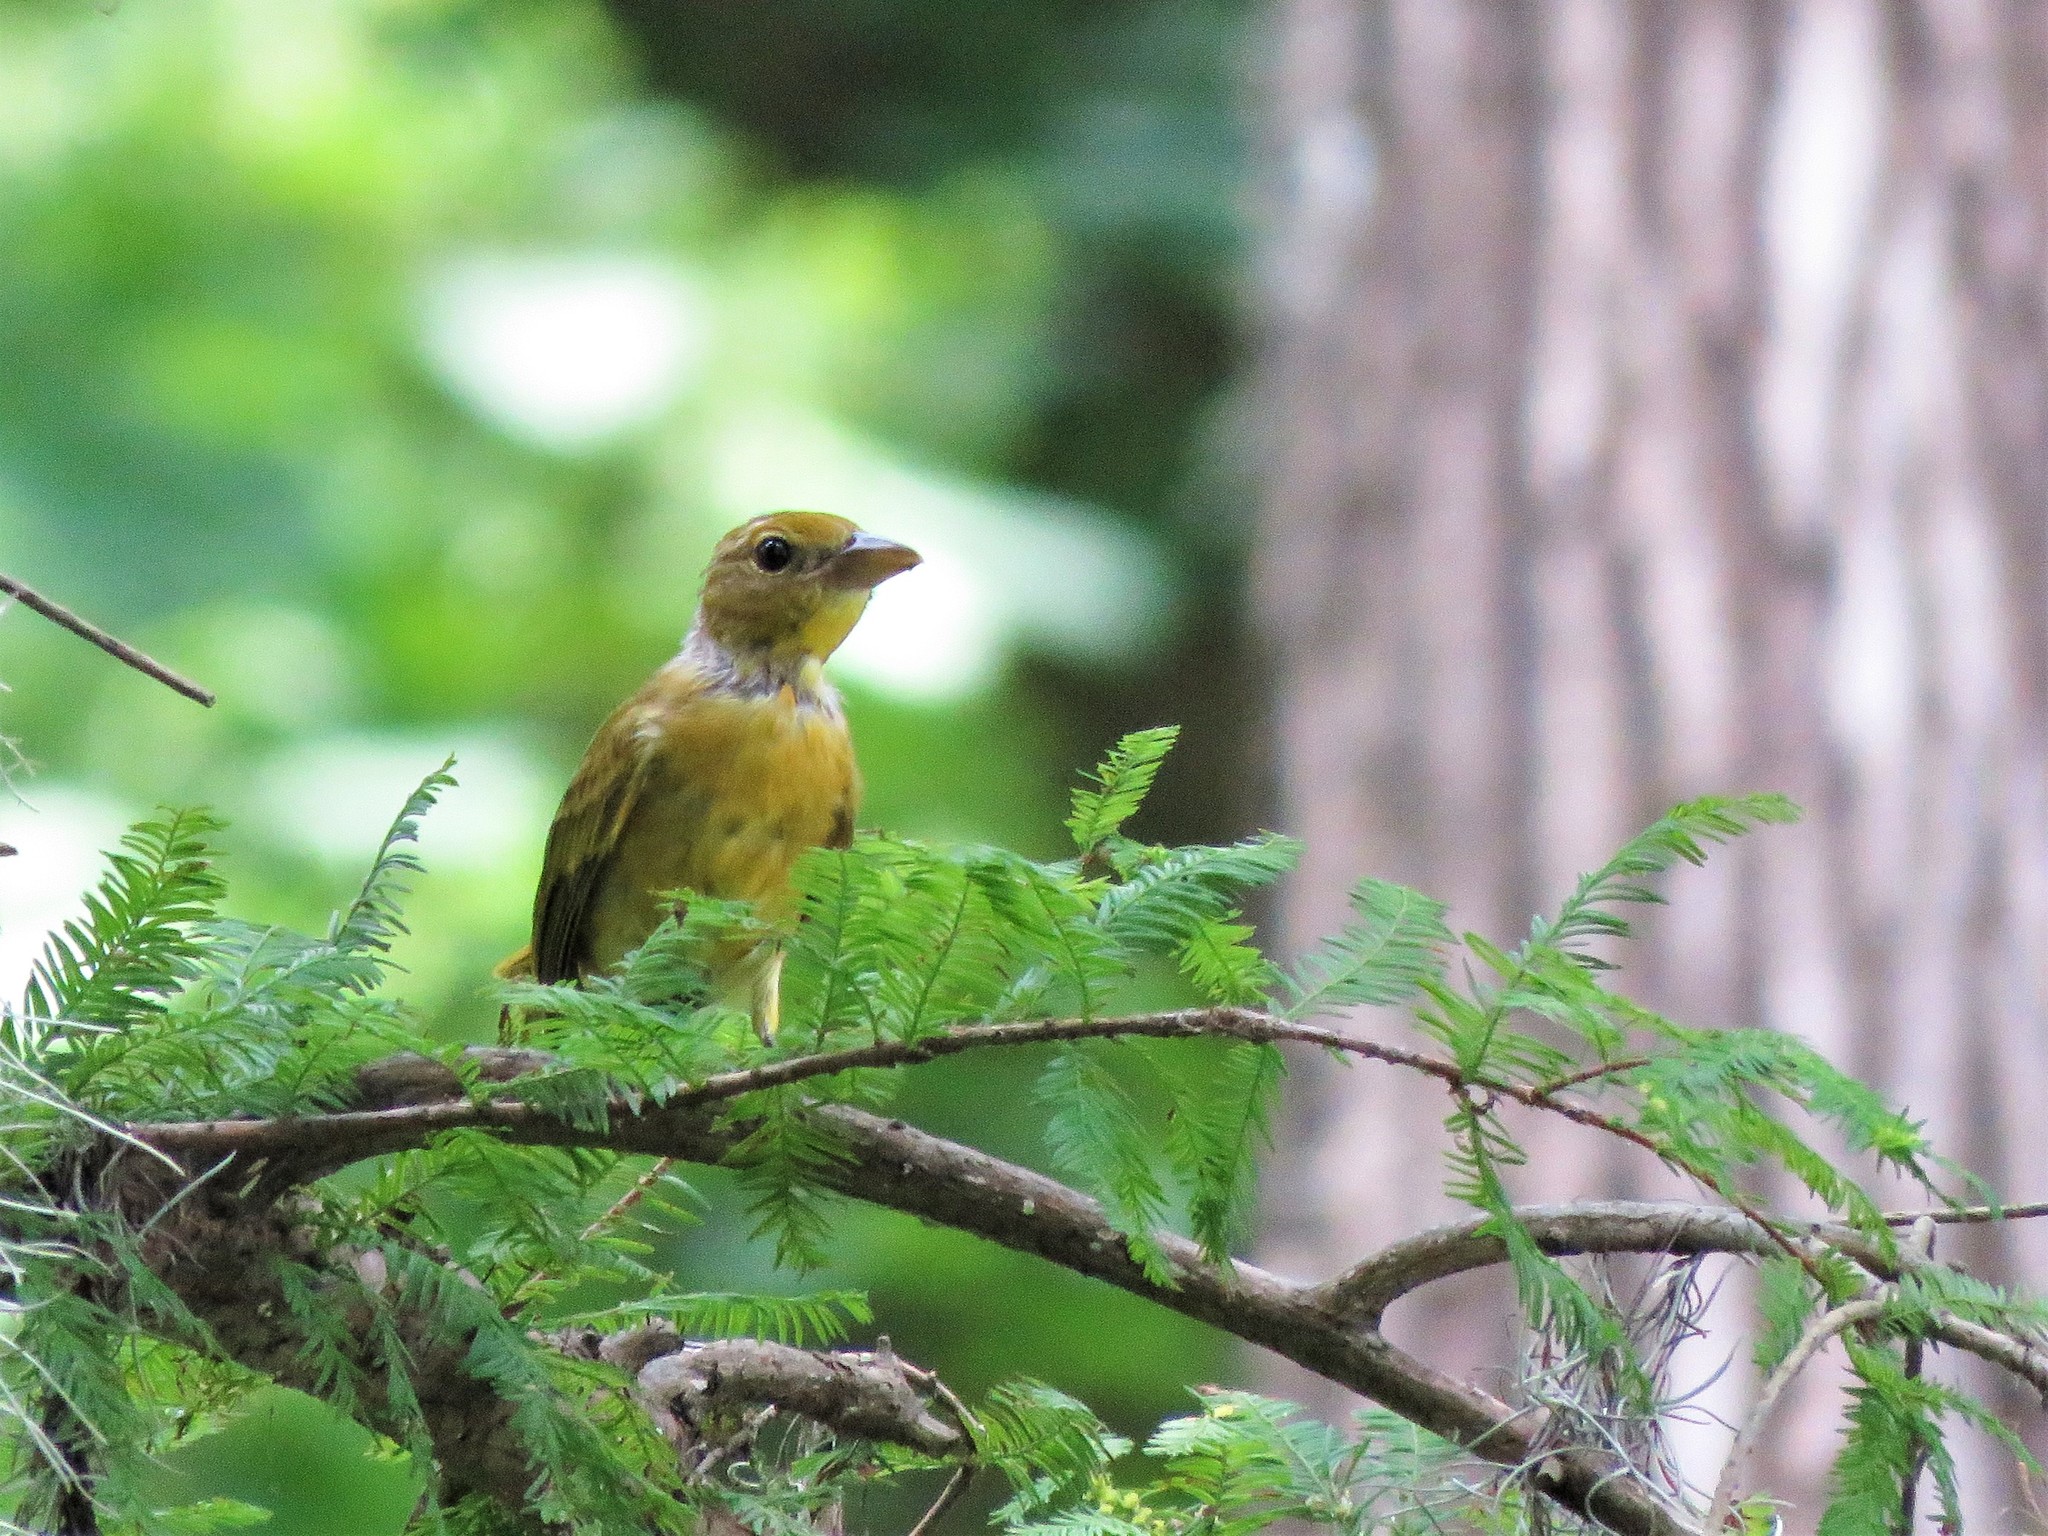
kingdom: Animalia
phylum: Chordata
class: Aves
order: Passeriformes
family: Cardinalidae
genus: Piranga
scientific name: Piranga rubra
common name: Summer tanager
